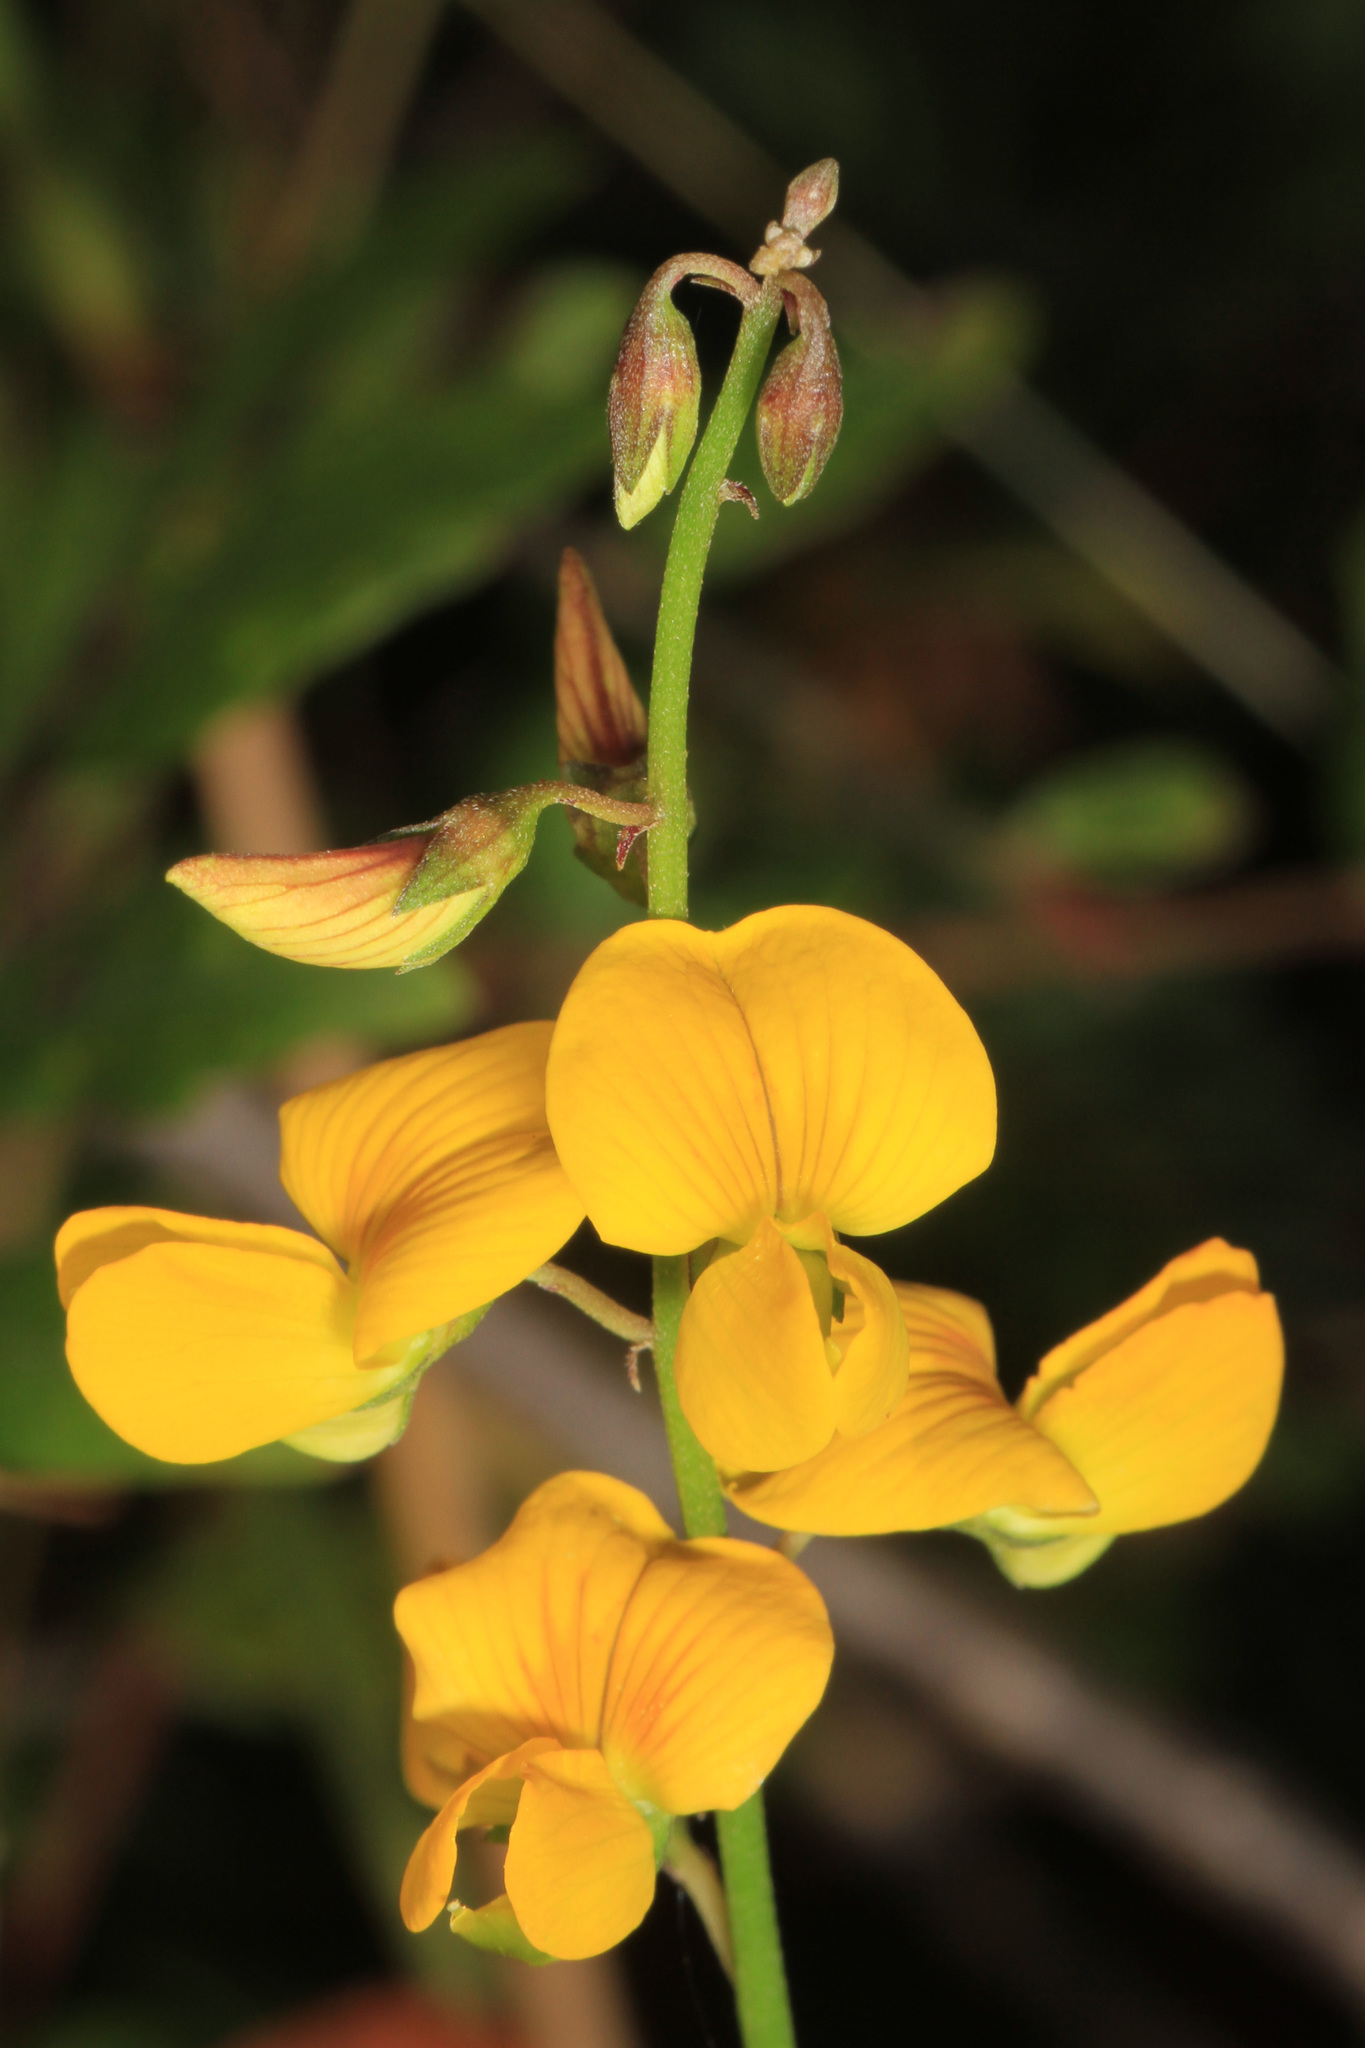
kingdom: Plantae
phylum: Tracheophyta
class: Magnoliopsida
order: Fabales
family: Fabaceae
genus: Crotalaria
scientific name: Crotalaria pallida
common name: Smooth rattlebox
